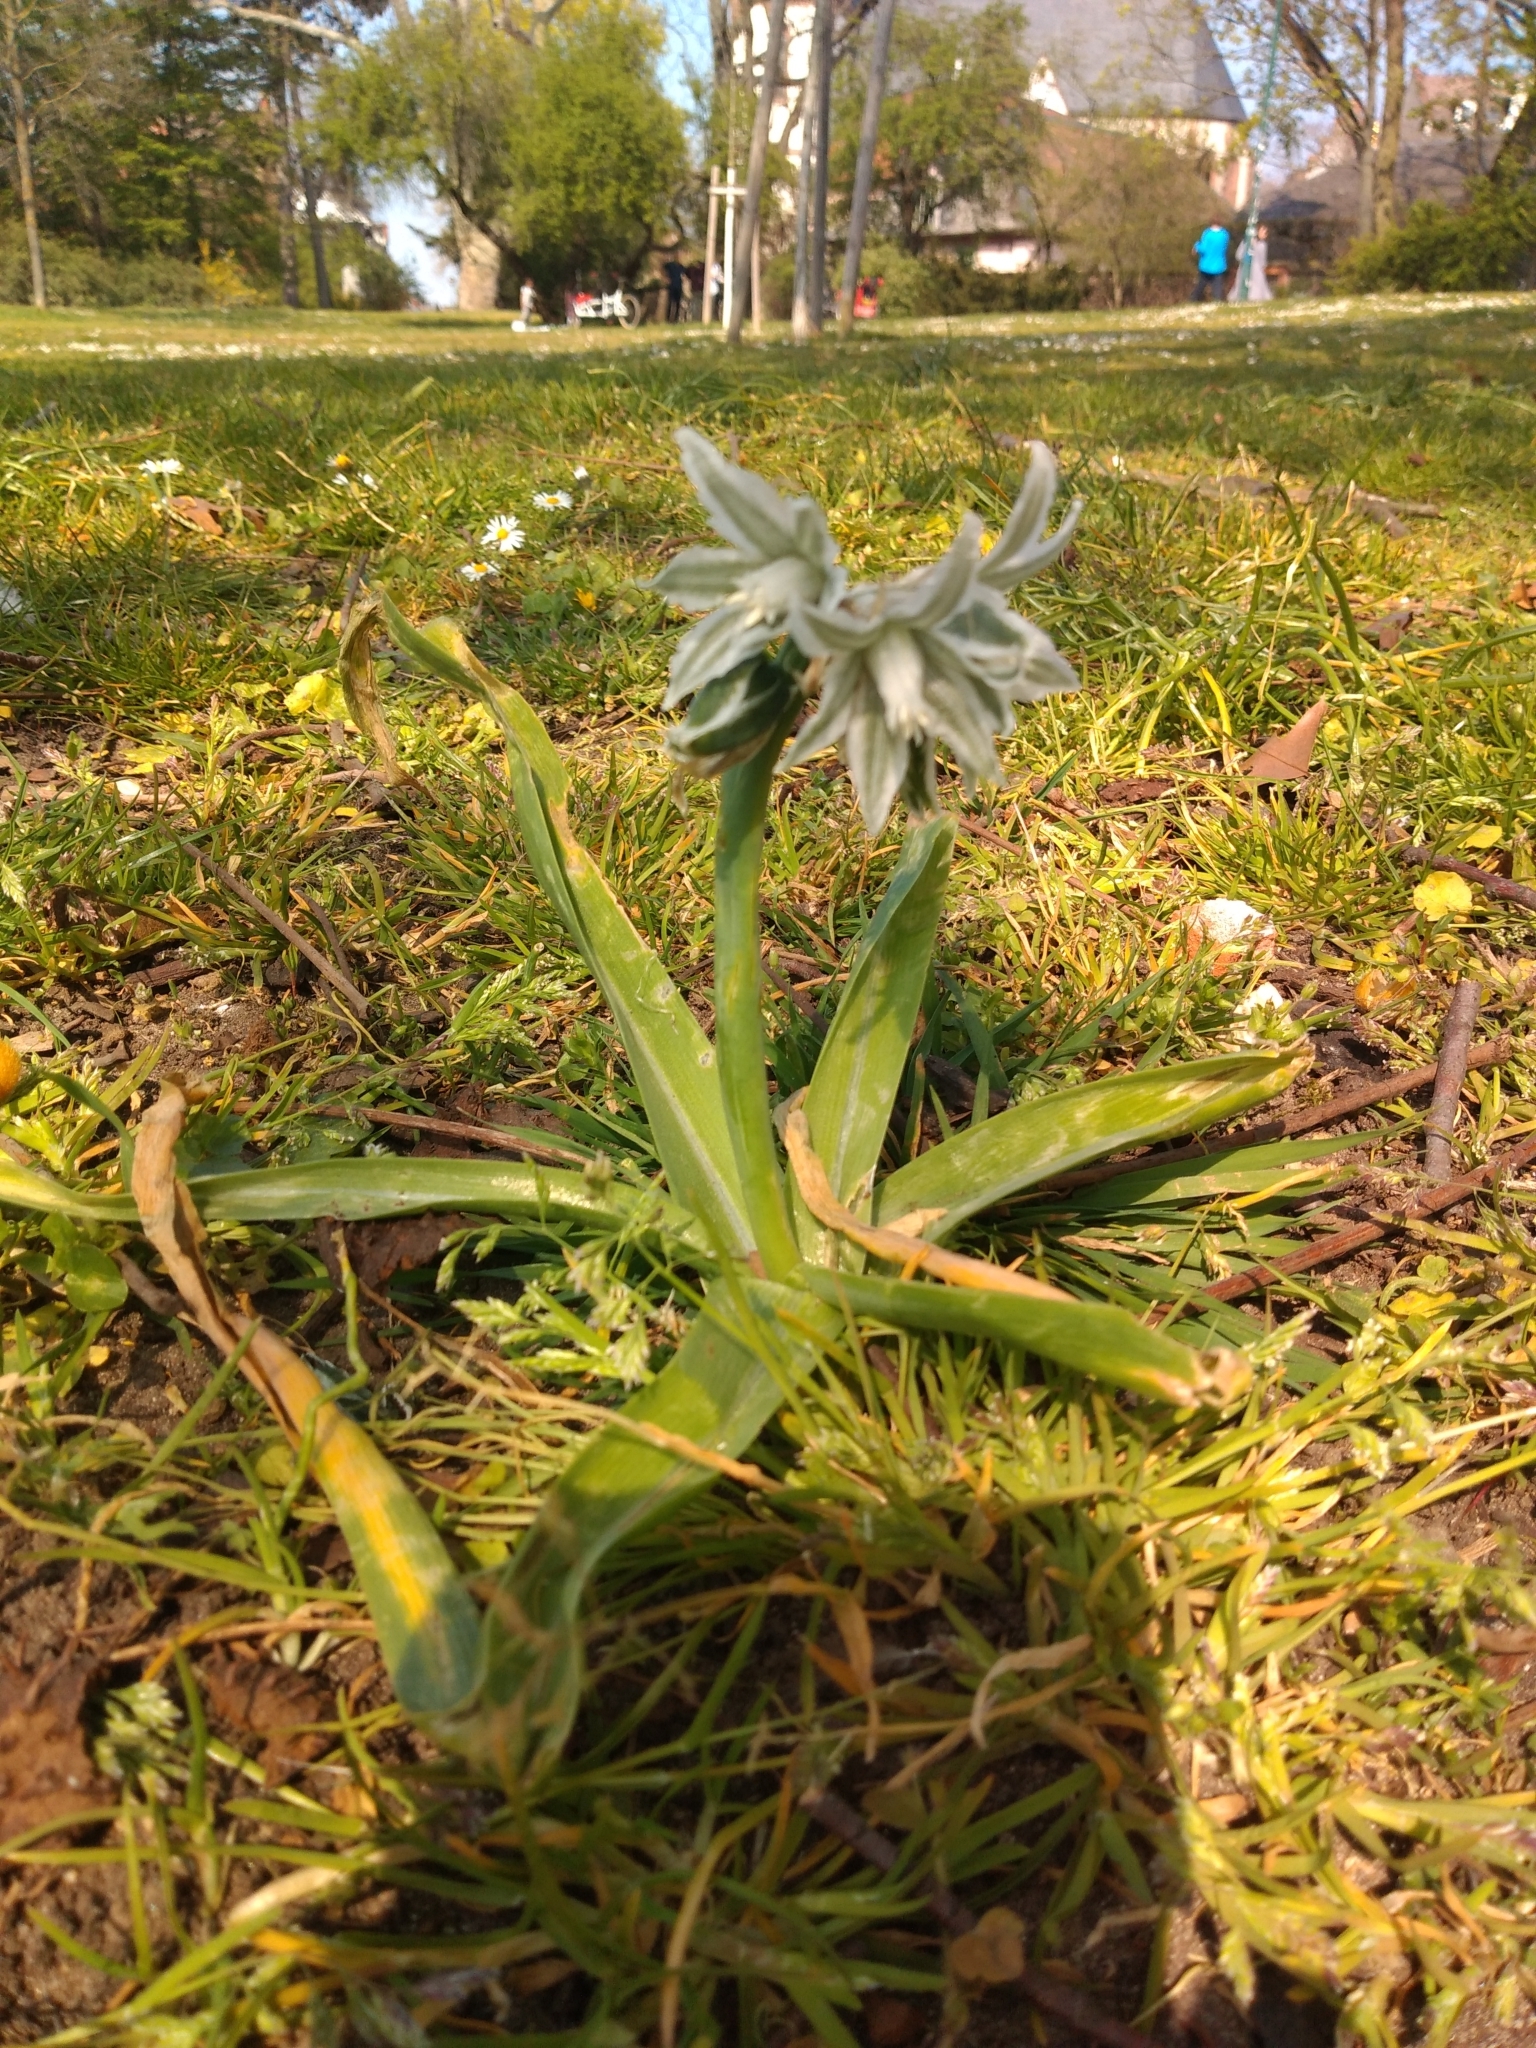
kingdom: Plantae
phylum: Tracheophyta
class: Liliopsida
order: Asparagales
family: Asparagaceae
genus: Ornithogalum
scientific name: Ornithogalum nutans
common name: Drooping star-of-bethlehem
